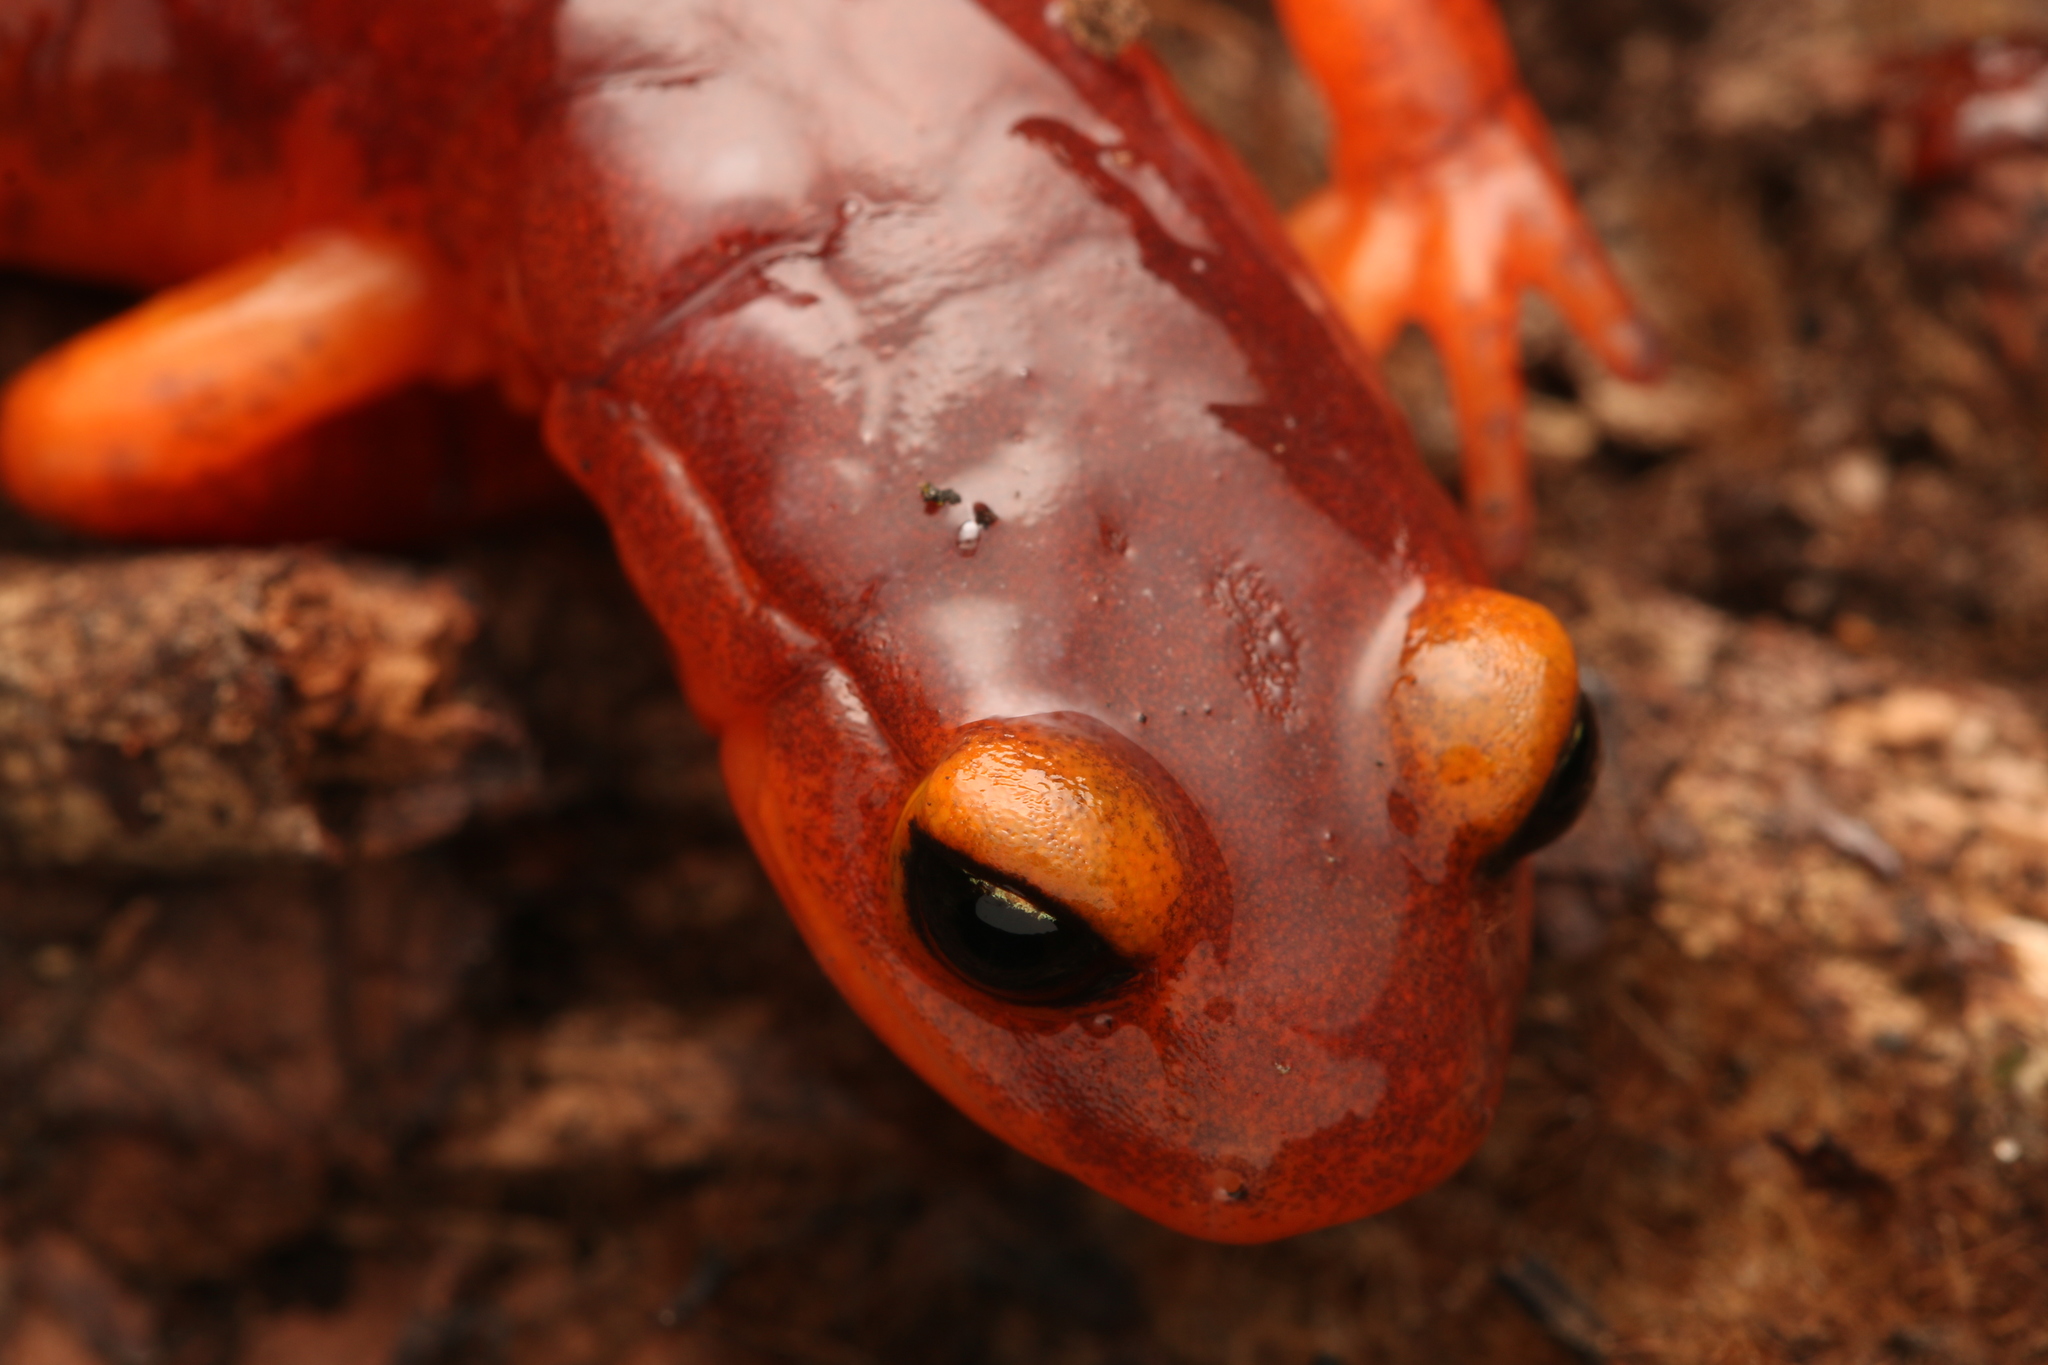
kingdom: Animalia
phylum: Chordata
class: Amphibia
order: Caudata
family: Plethodontidae
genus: Ensatina
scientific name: Ensatina eschscholtzii
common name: Ensatina
